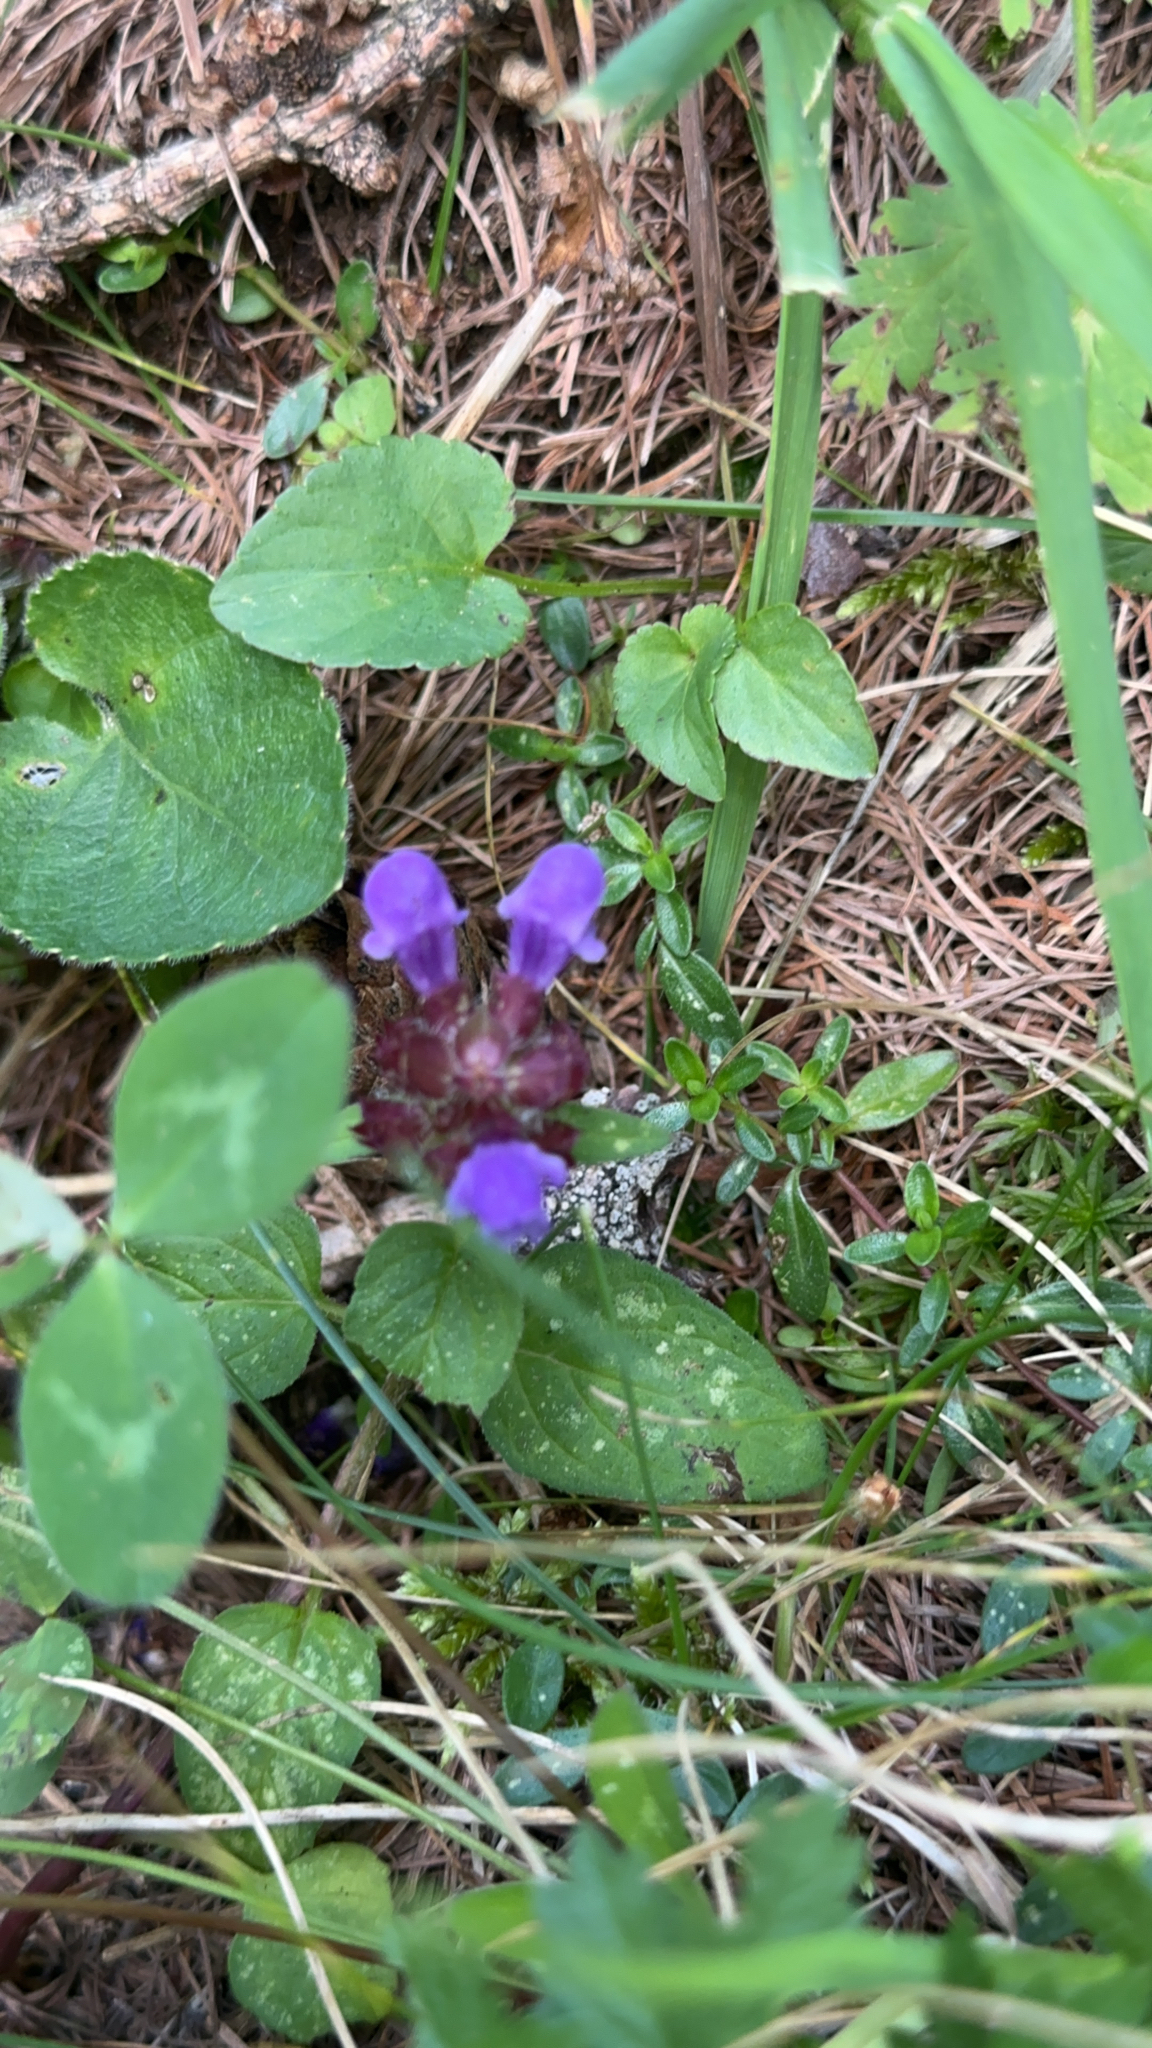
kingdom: Plantae
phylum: Tracheophyta
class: Magnoliopsida
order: Lamiales
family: Lamiaceae
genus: Prunella
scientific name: Prunella vulgaris
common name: Heal-all
